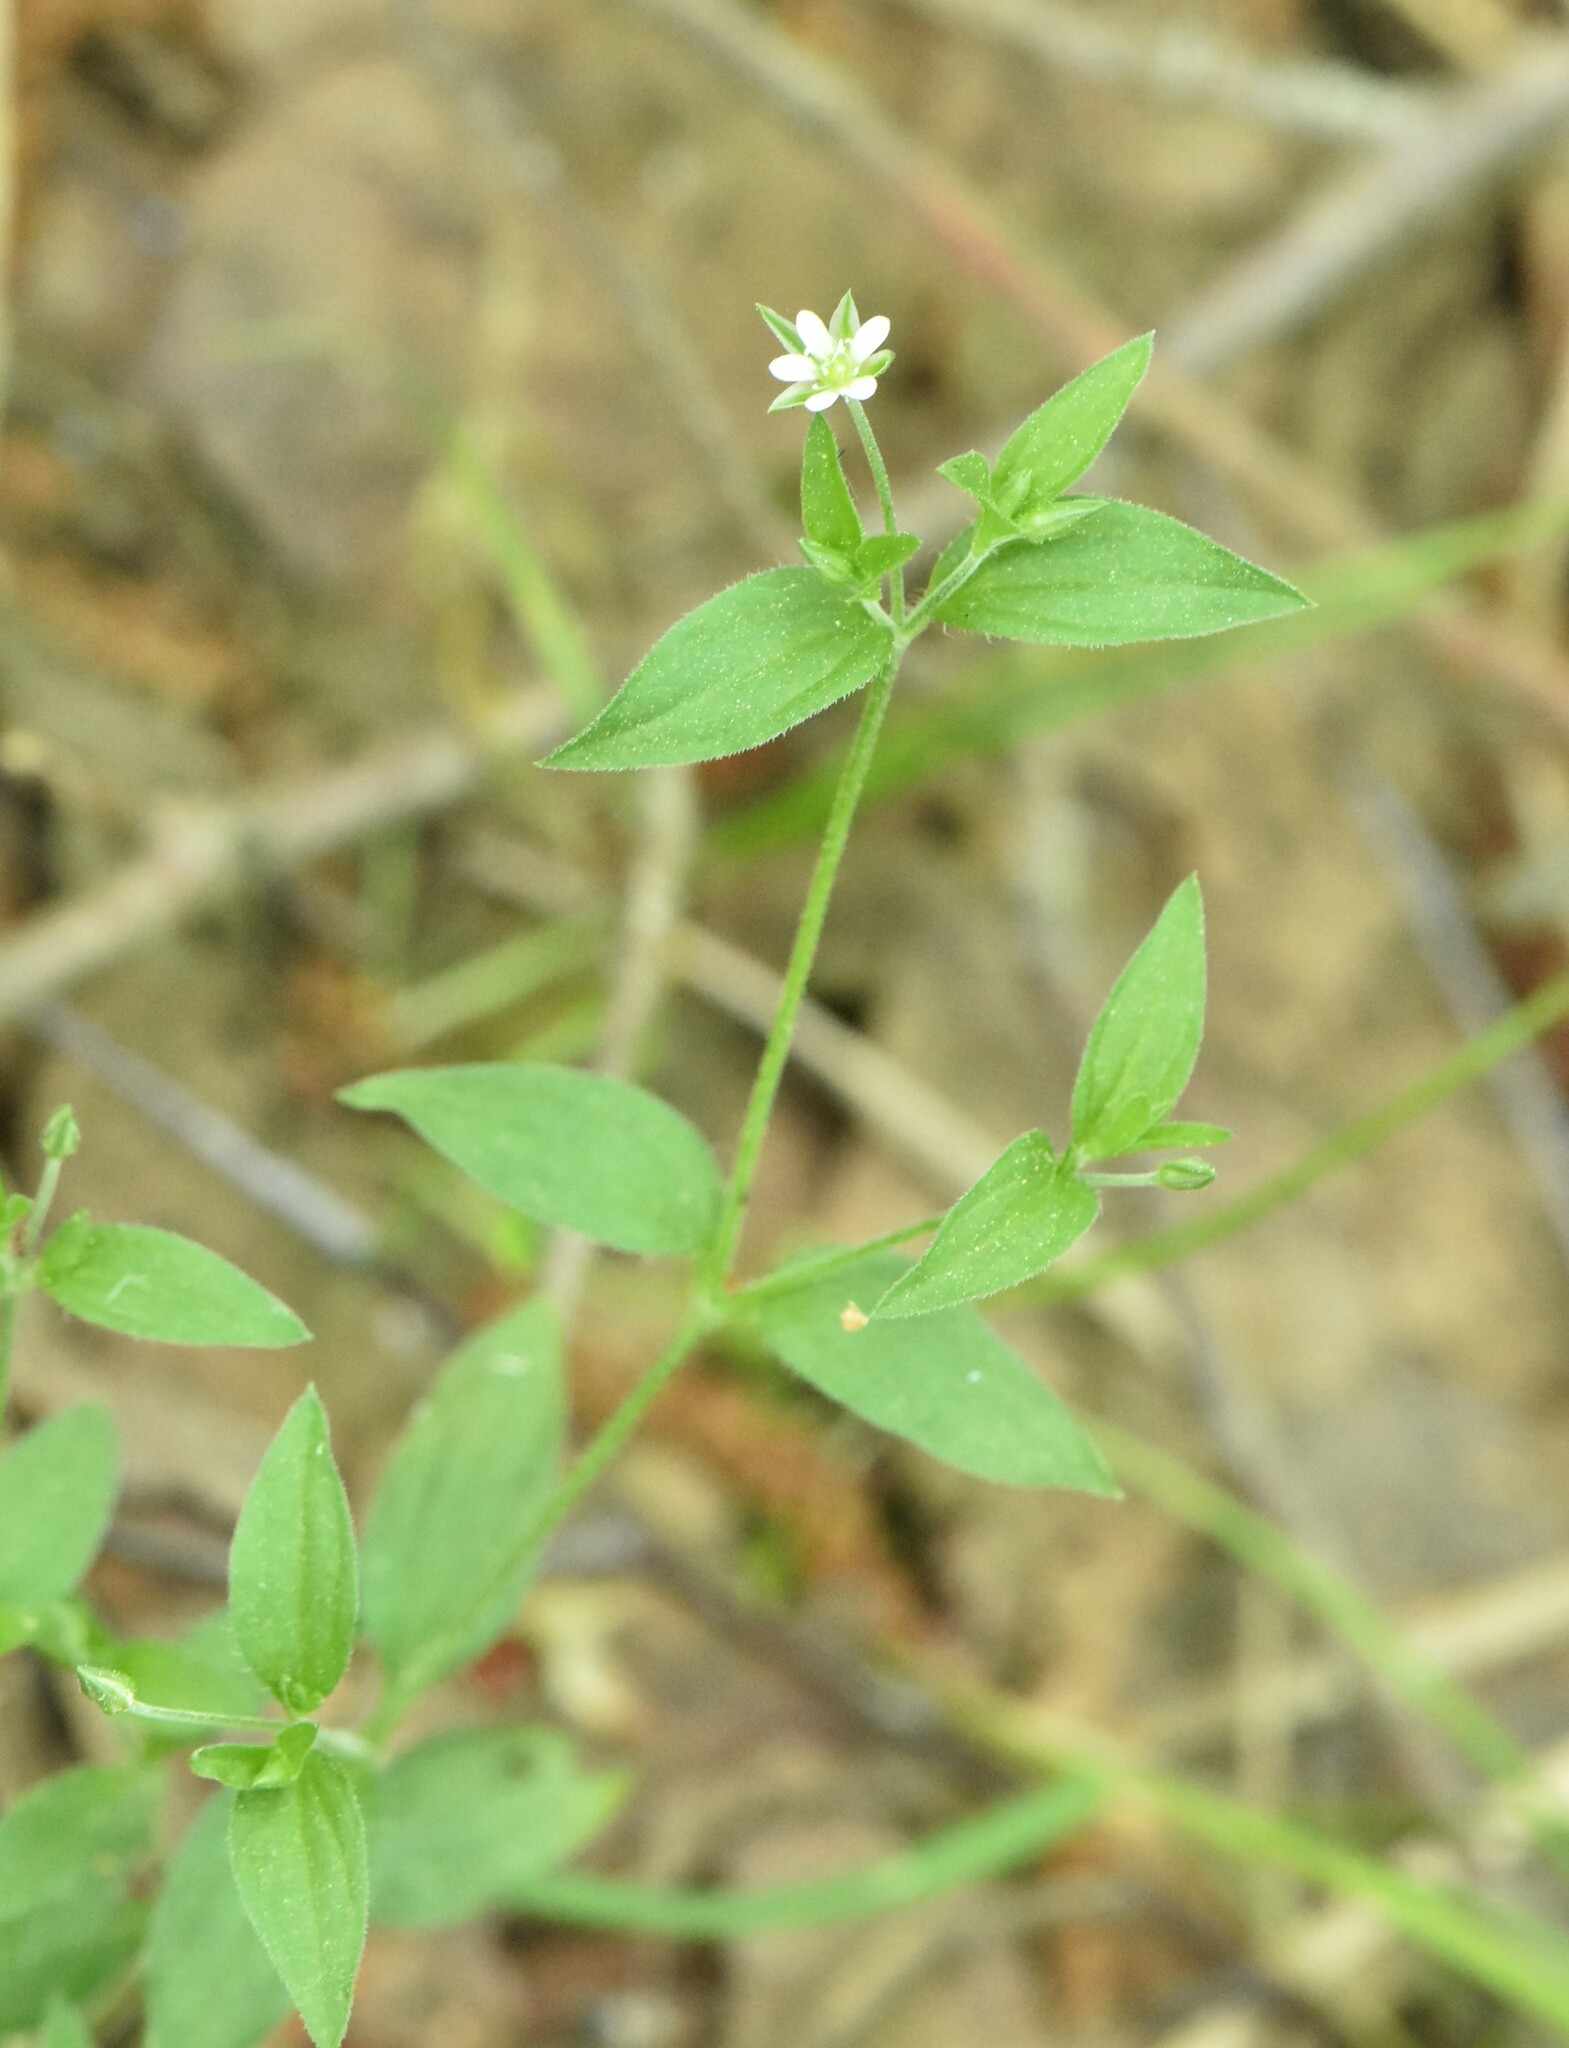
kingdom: Plantae
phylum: Tracheophyta
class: Magnoliopsida
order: Caryophyllales
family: Caryophyllaceae
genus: Moehringia
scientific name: Moehringia trinervia
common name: Three-nerved sandwort
